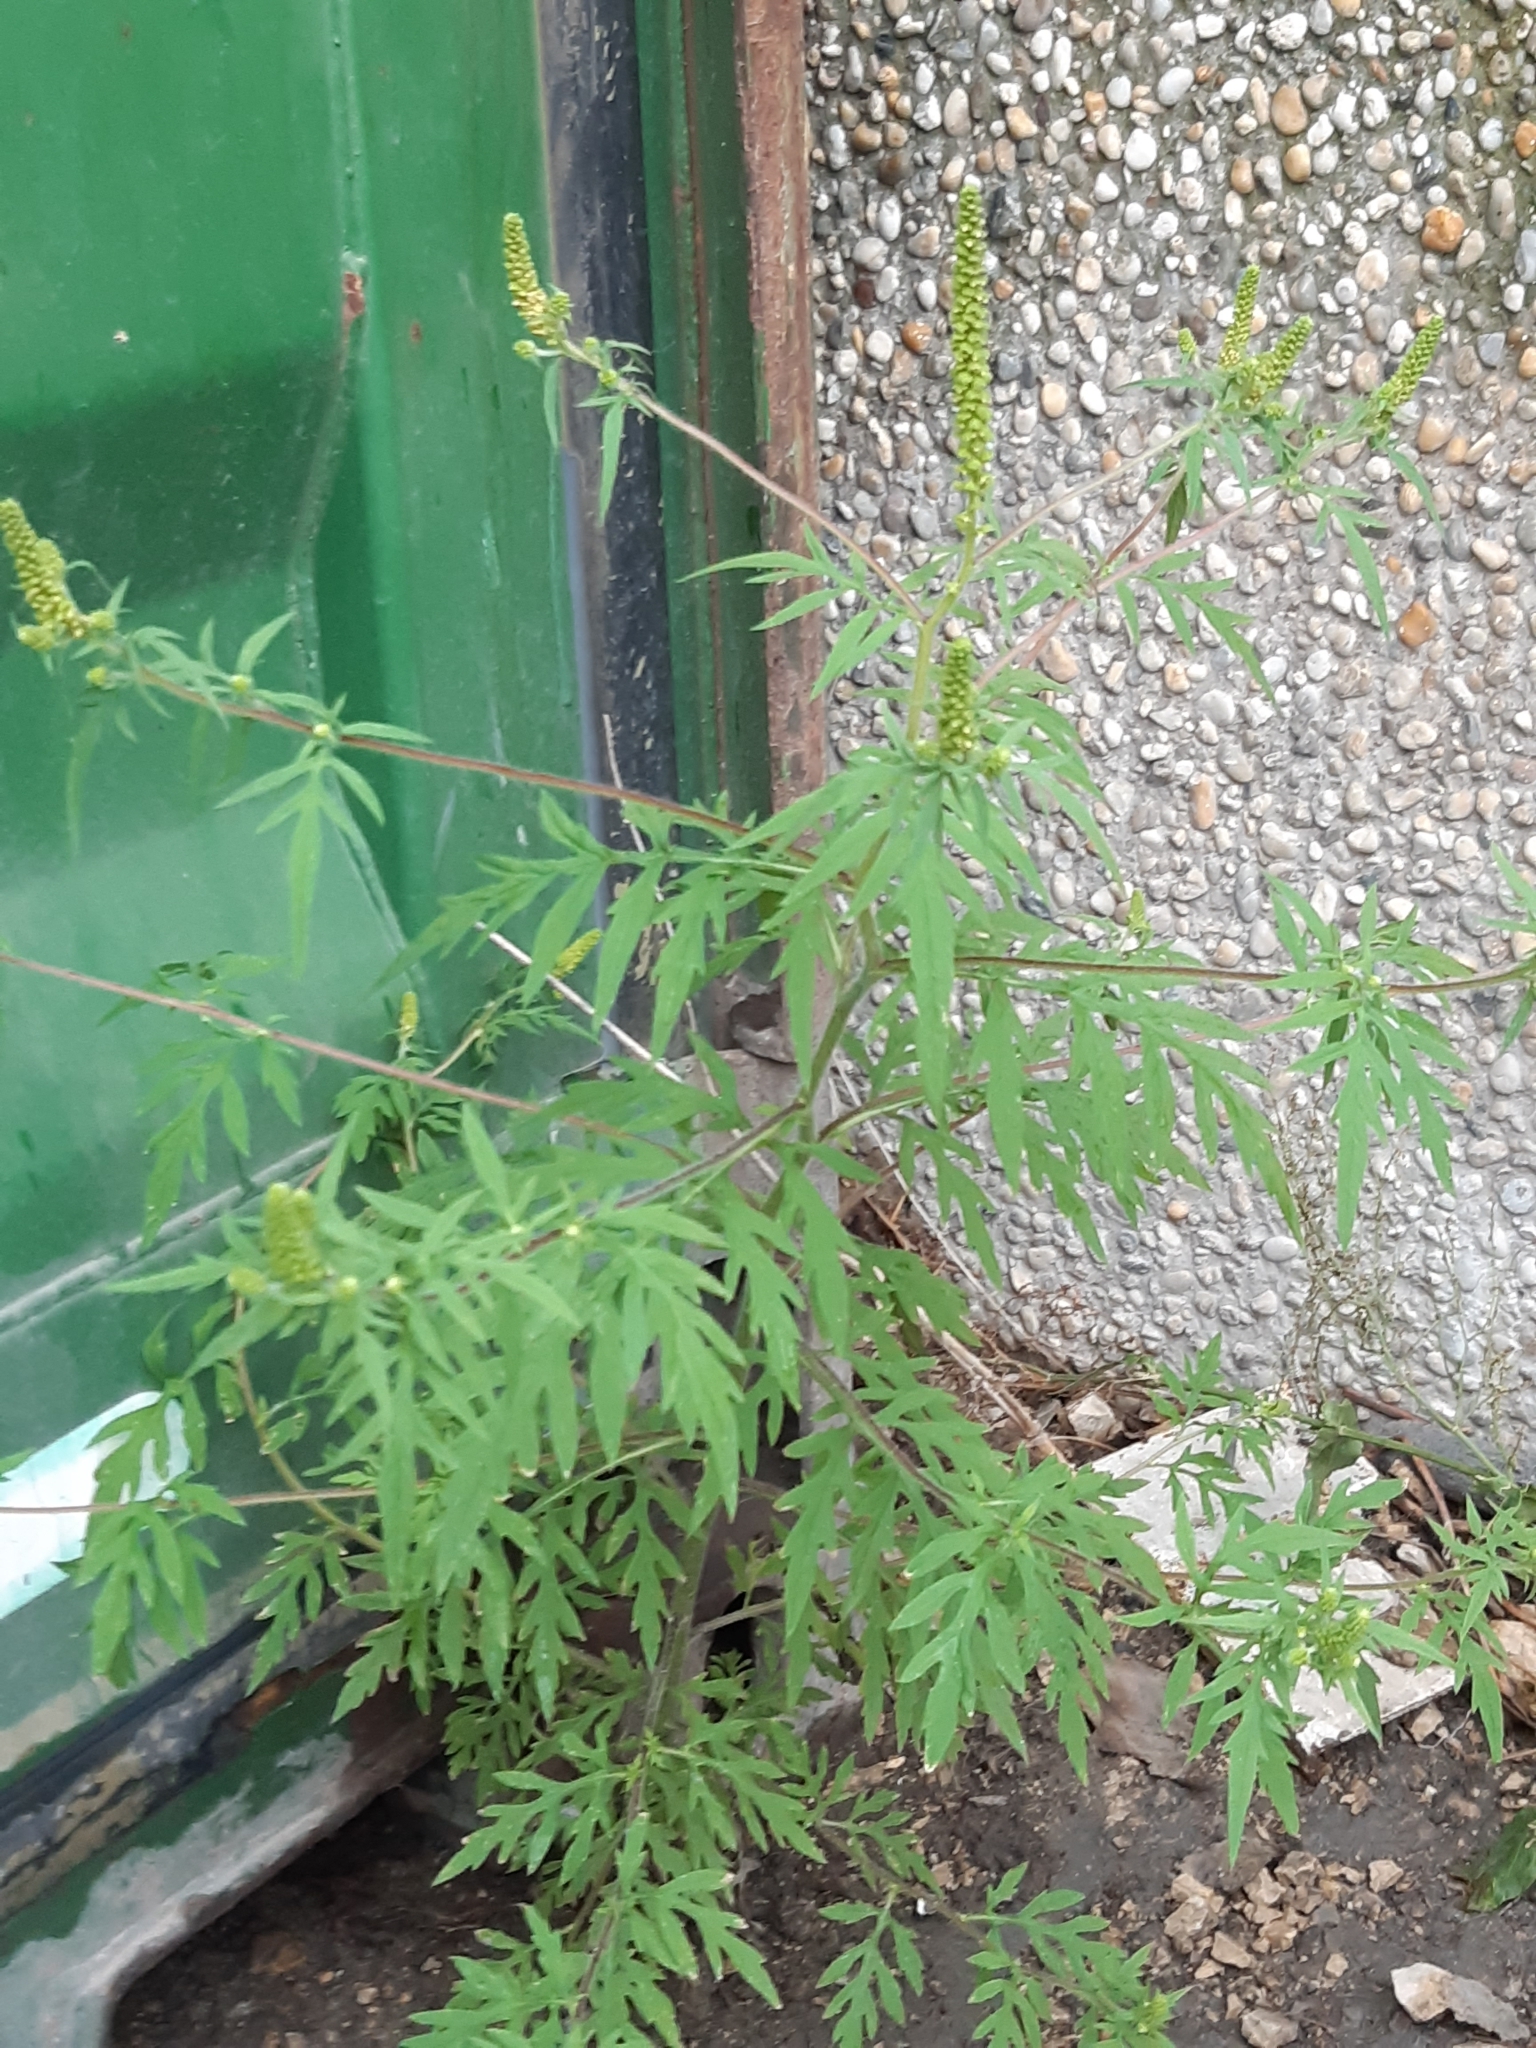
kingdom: Plantae
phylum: Tracheophyta
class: Magnoliopsida
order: Asterales
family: Asteraceae
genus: Ambrosia
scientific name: Ambrosia artemisiifolia
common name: Annual ragweed
